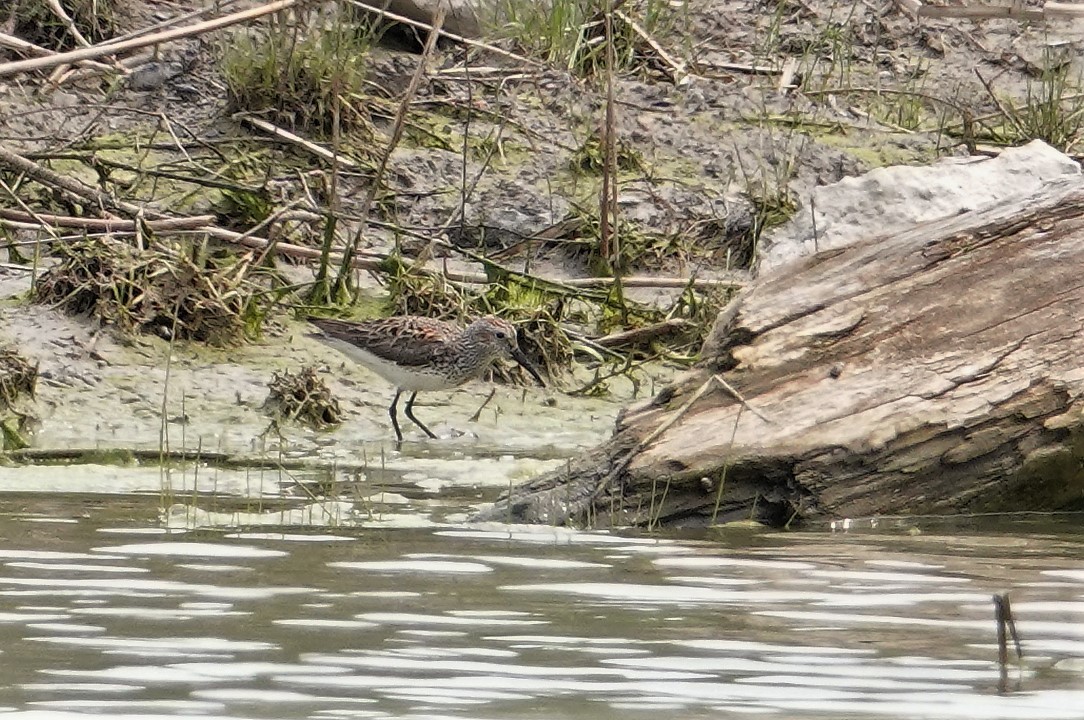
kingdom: Animalia
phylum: Chordata
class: Aves
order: Charadriiformes
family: Scolopacidae
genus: Calidris
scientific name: Calidris
